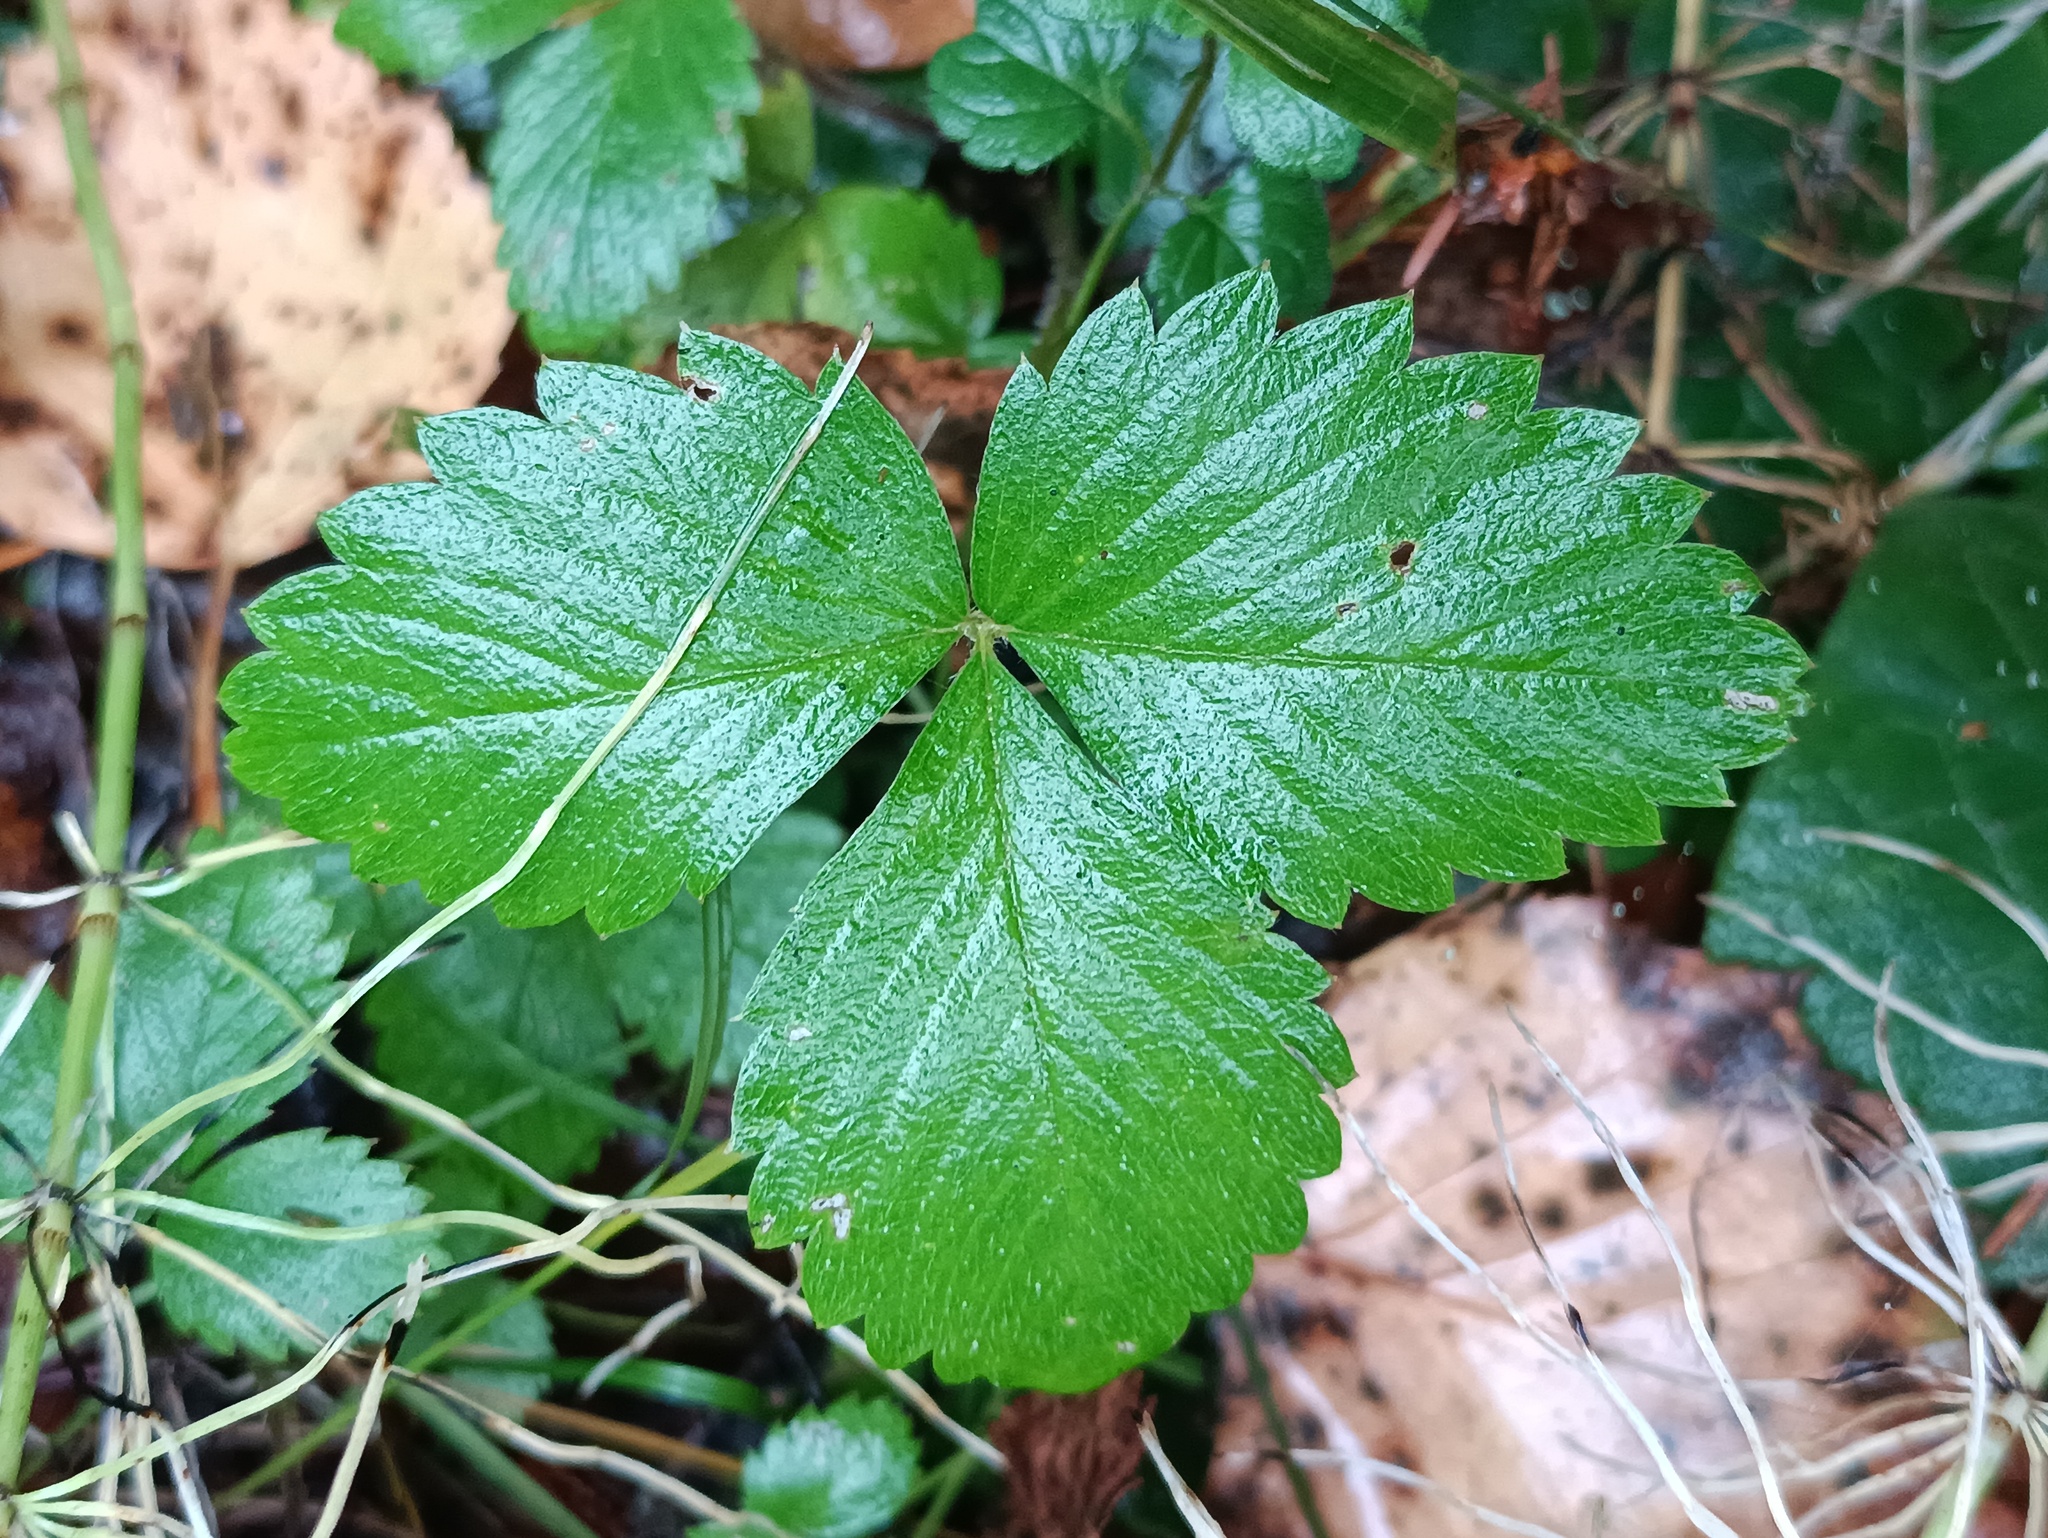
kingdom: Plantae
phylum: Tracheophyta
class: Magnoliopsida
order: Rosales
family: Rosaceae
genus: Fragaria
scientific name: Fragaria vesca
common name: Wild strawberry
